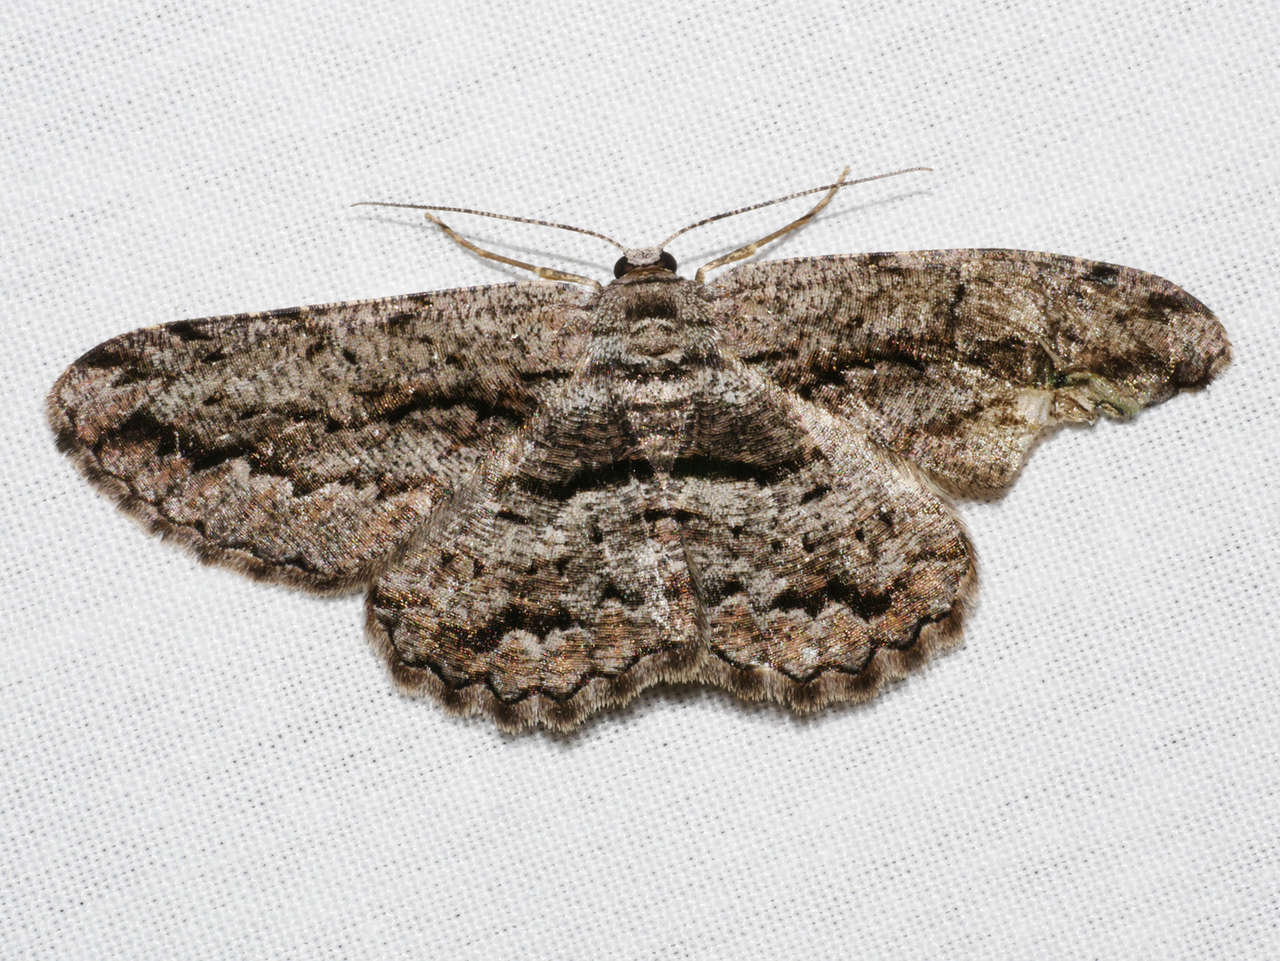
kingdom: Animalia
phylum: Arthropoda
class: Insecta
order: Lepidoptera
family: Geometridae
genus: Scioglyptis
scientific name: Scioglyptis canescaria
